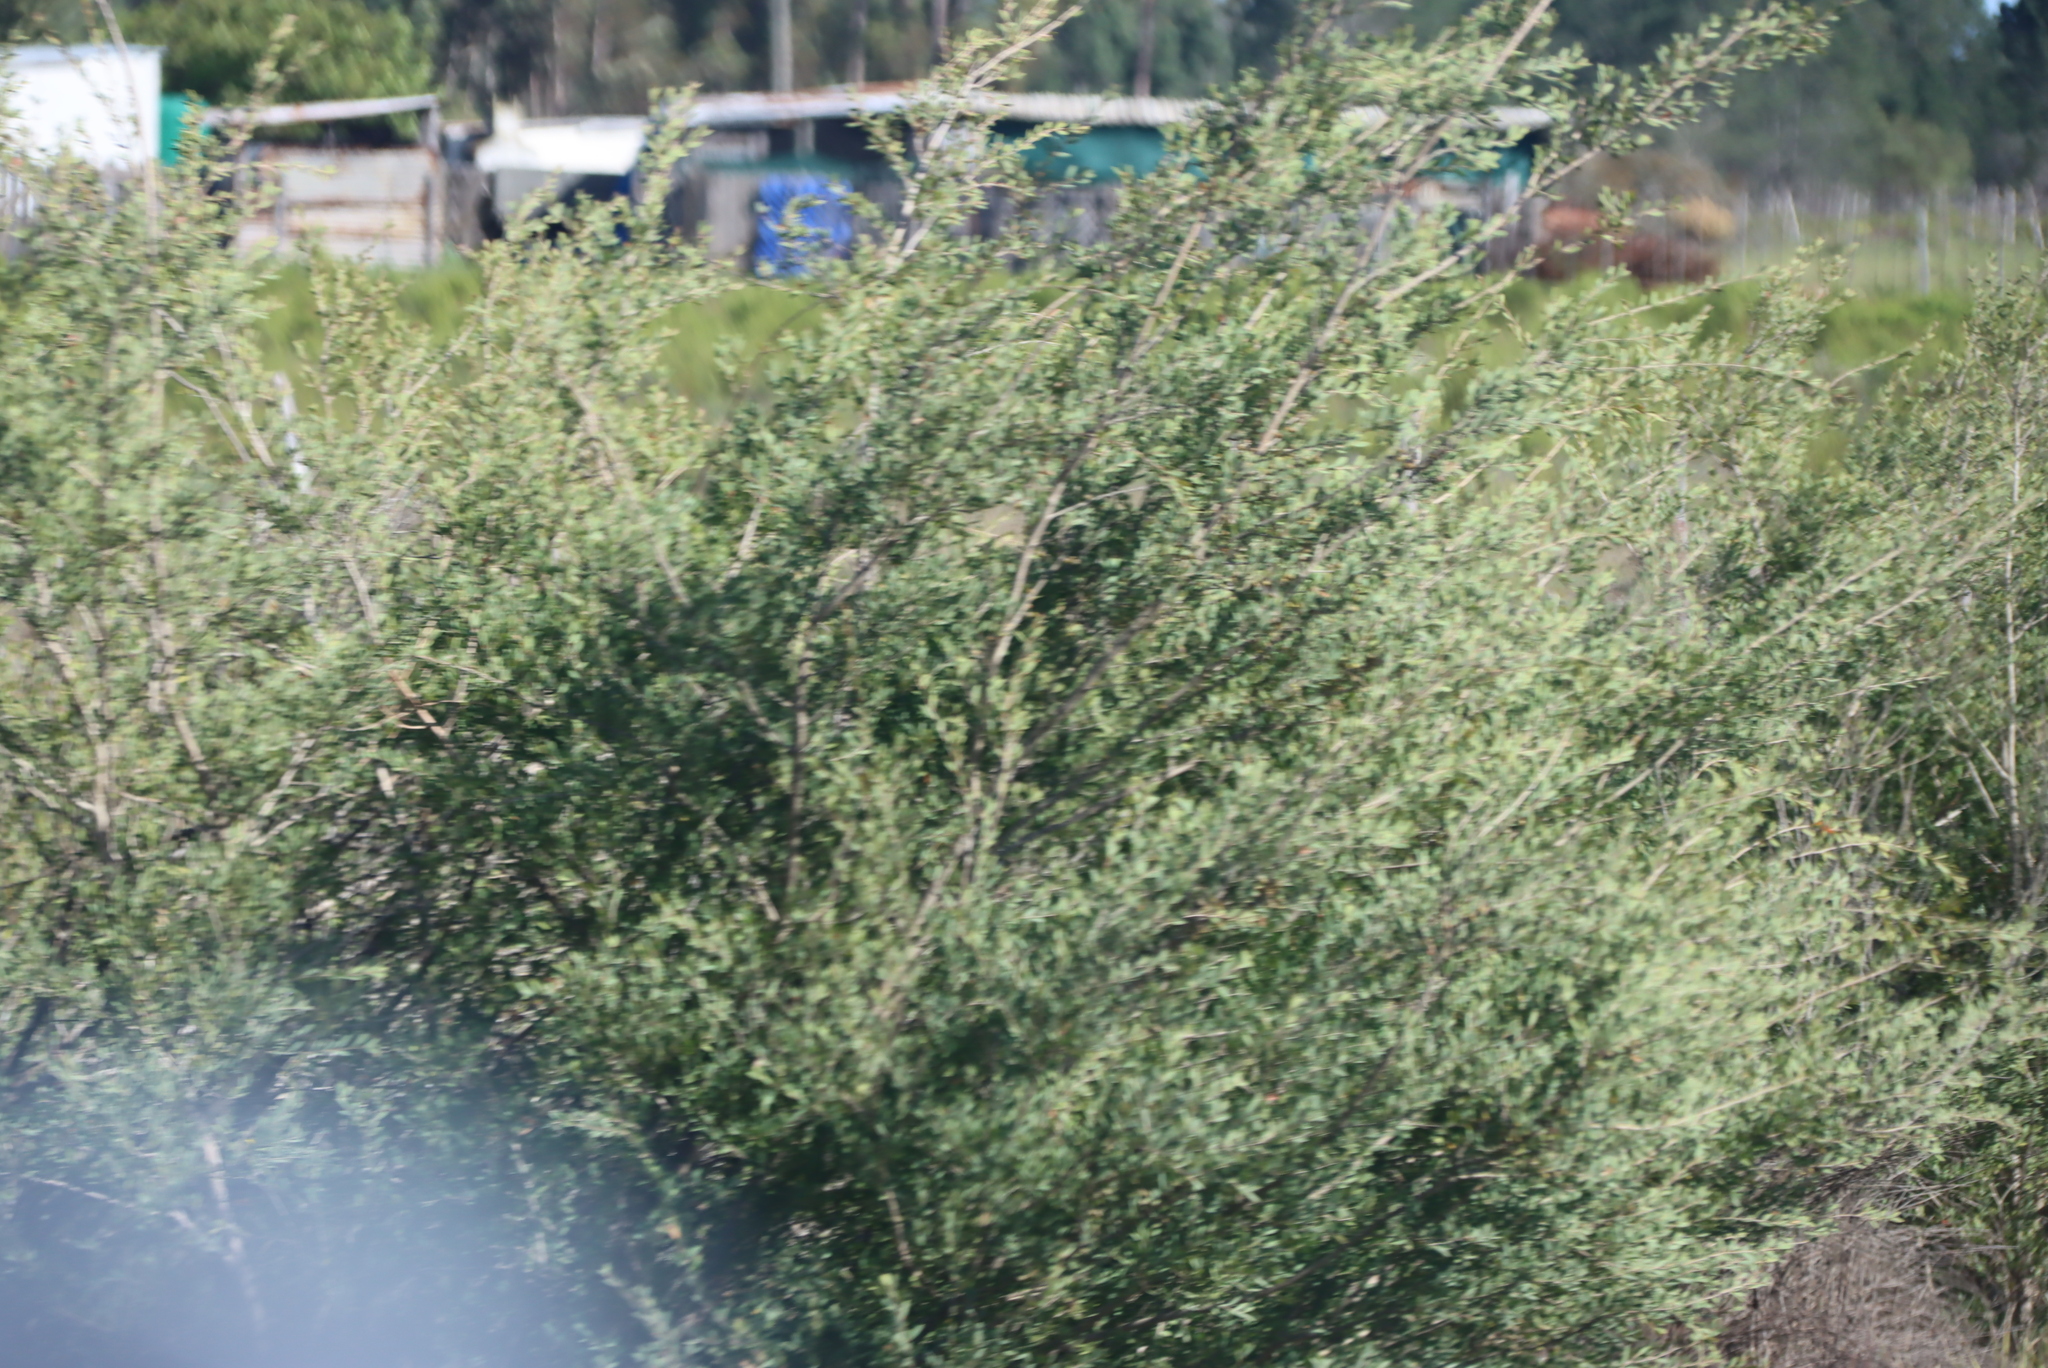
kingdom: Plantae
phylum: Tracheophyta
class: Magnoliopsida
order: Myrtales
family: Myrtaceae
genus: Leptospermum
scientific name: Leptospermum laevigatum
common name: Australian teatree
